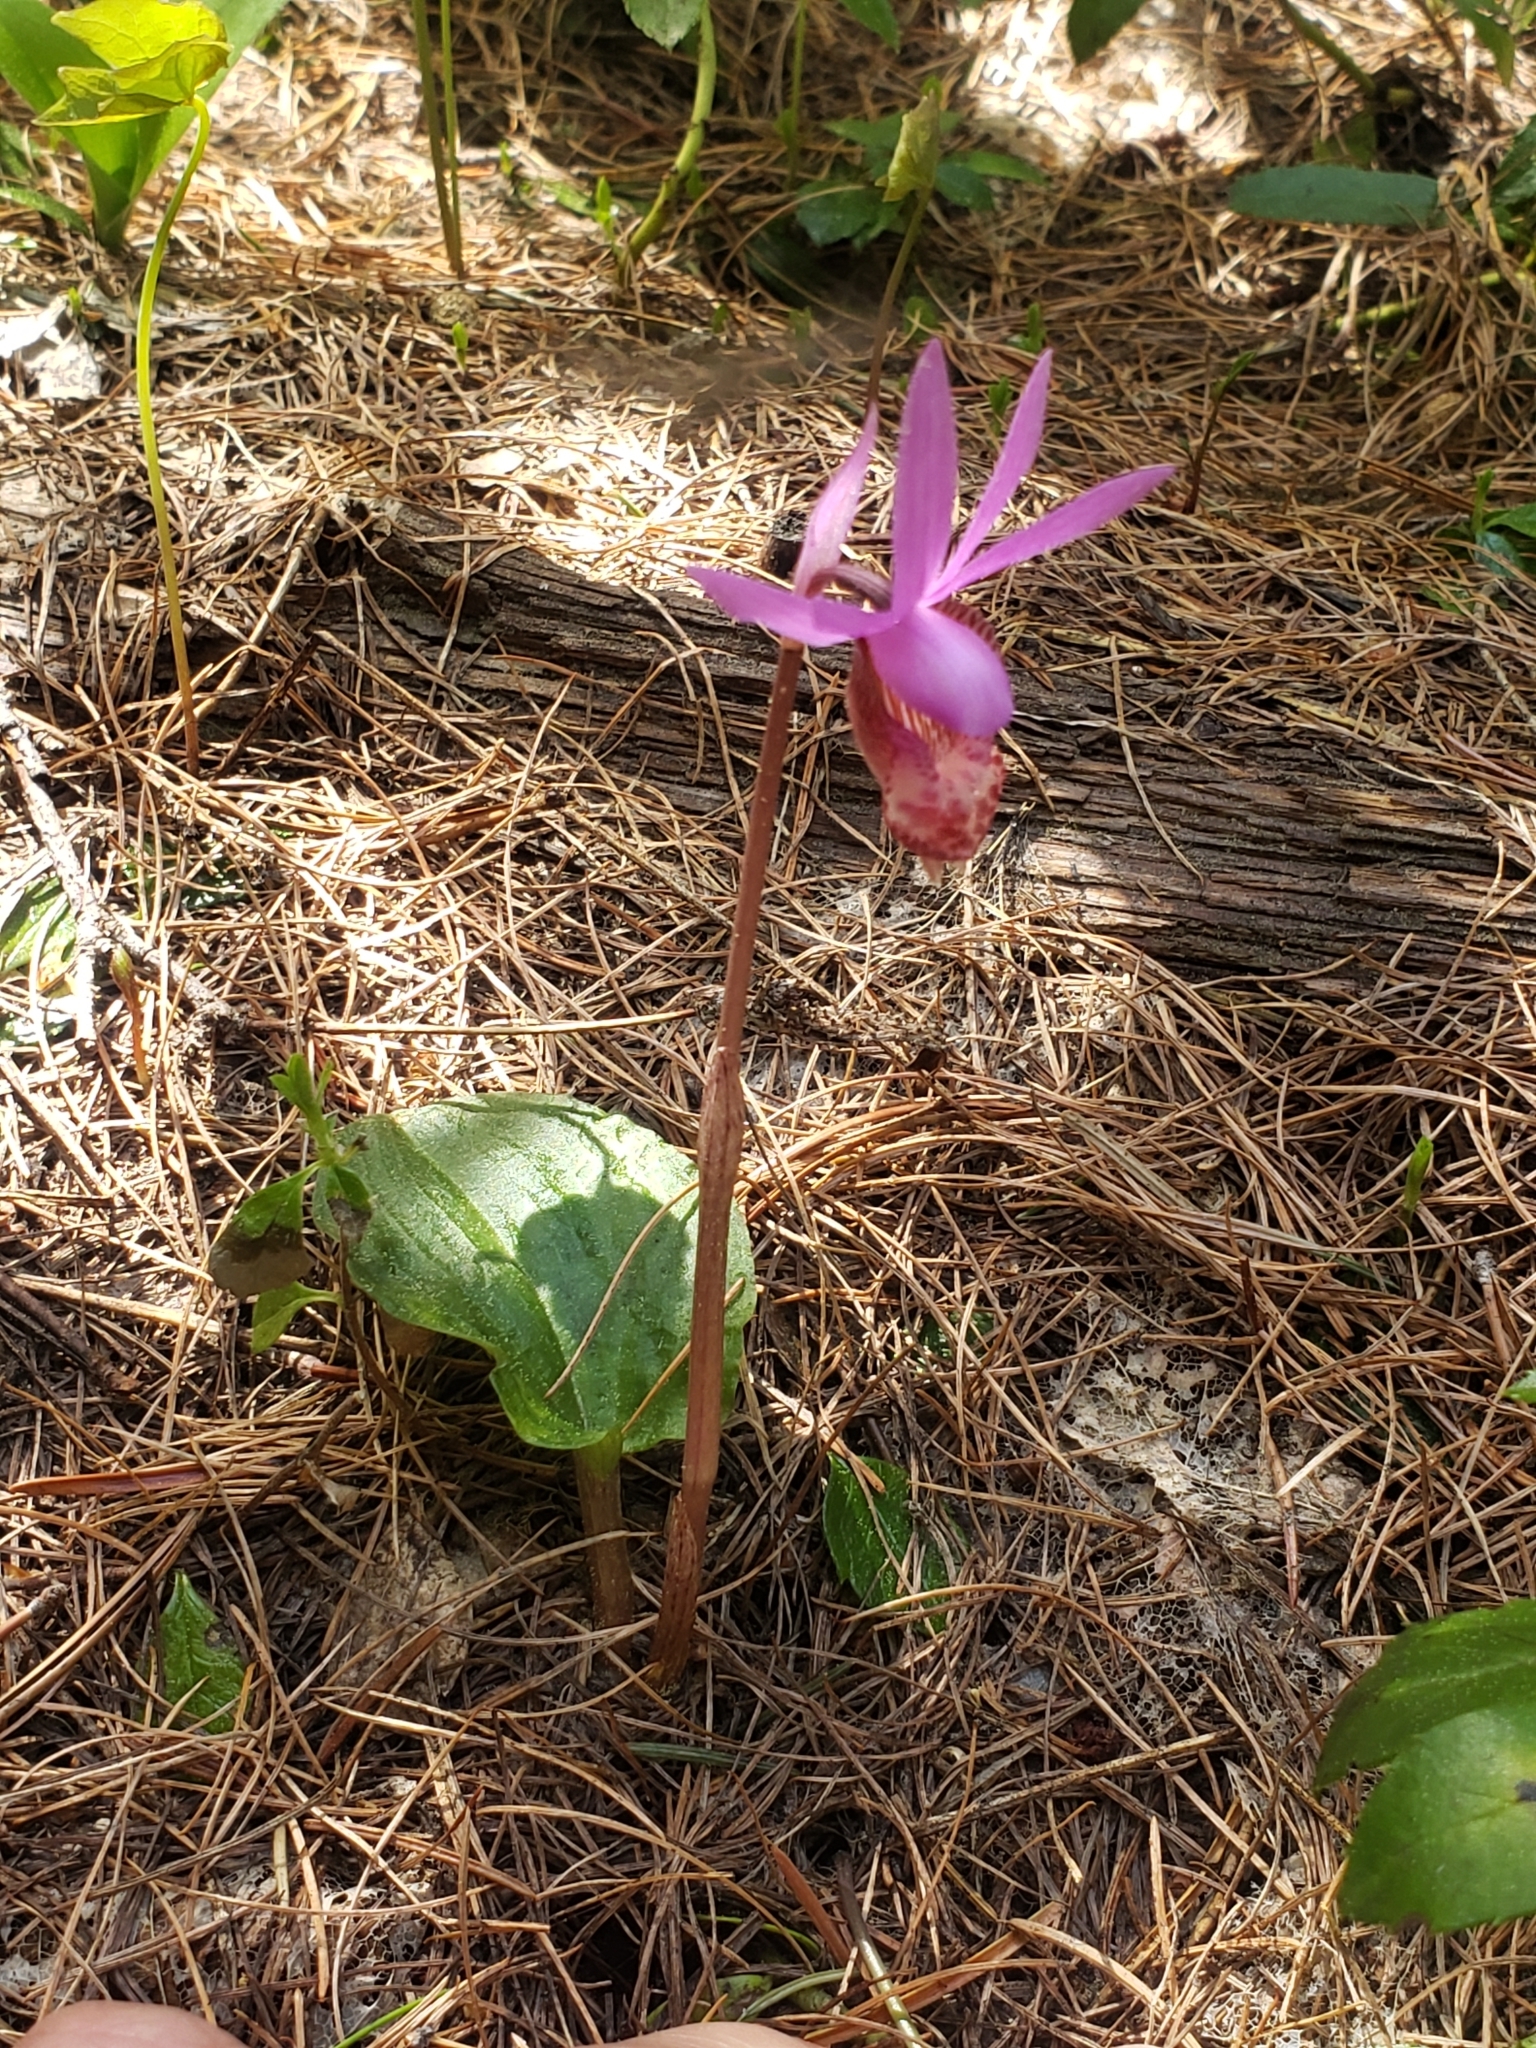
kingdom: Plantae
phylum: Tracheophyta
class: Liliopsida
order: Asparagales
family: Orchidaceae
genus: Calypso
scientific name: Calypso bulbosa
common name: Calypso
